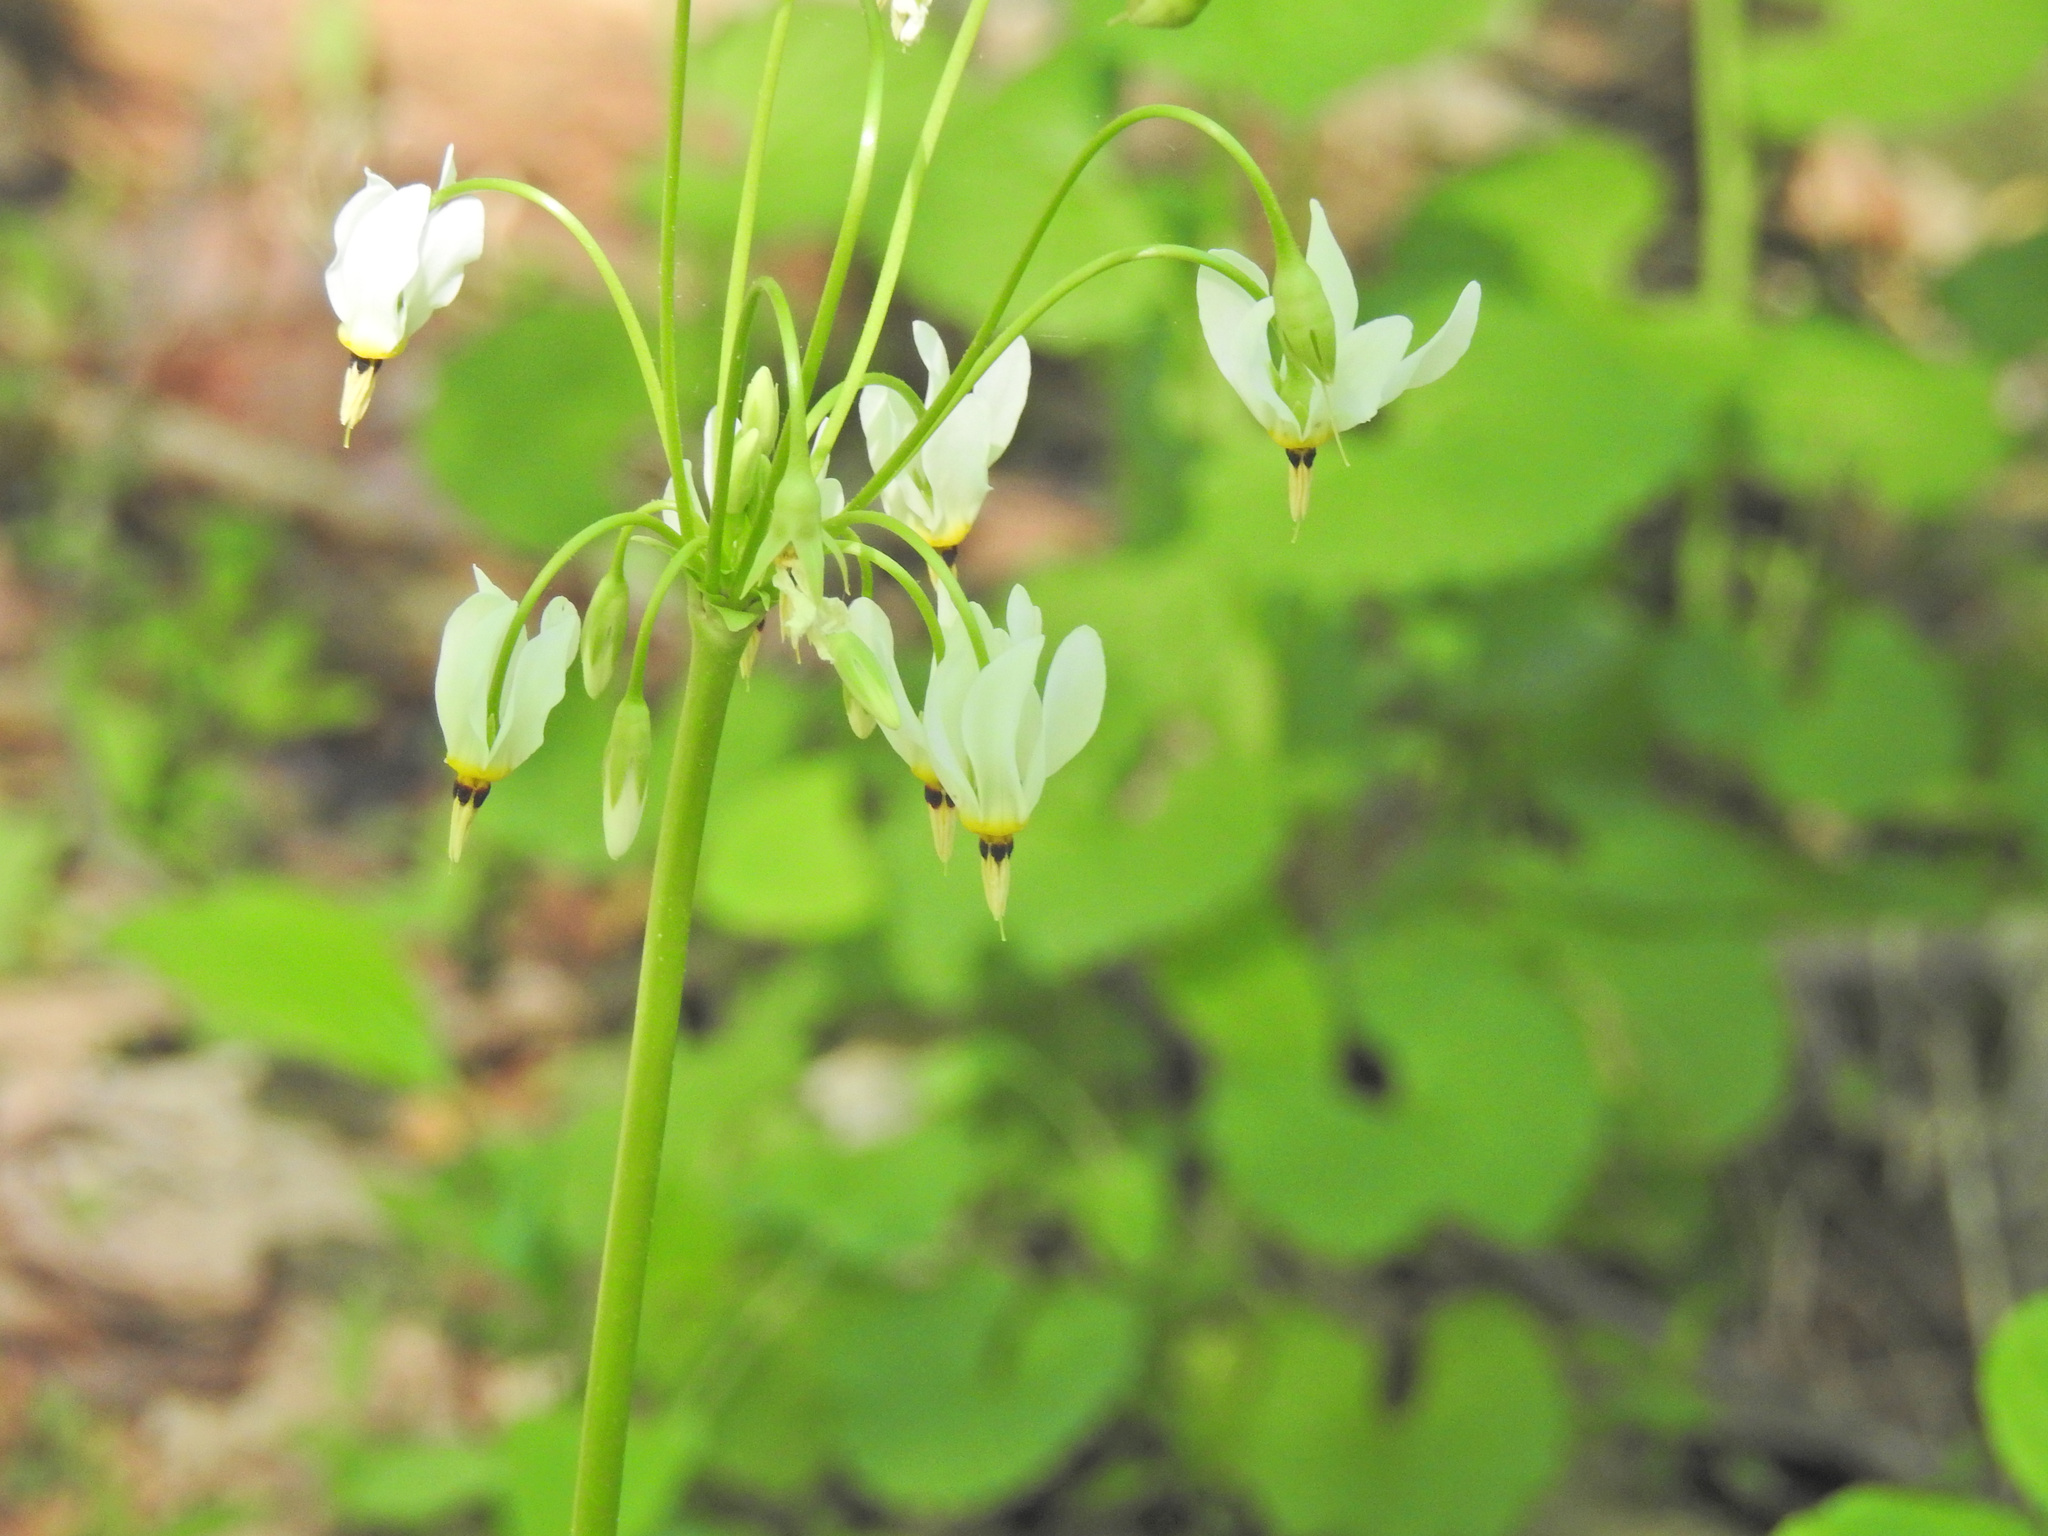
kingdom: Plantae
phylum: Tracheophyta
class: Magnoliopsida
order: Ericales
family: Primulaceae
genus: Dodecatheon
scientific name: Dodecatheon meadia
